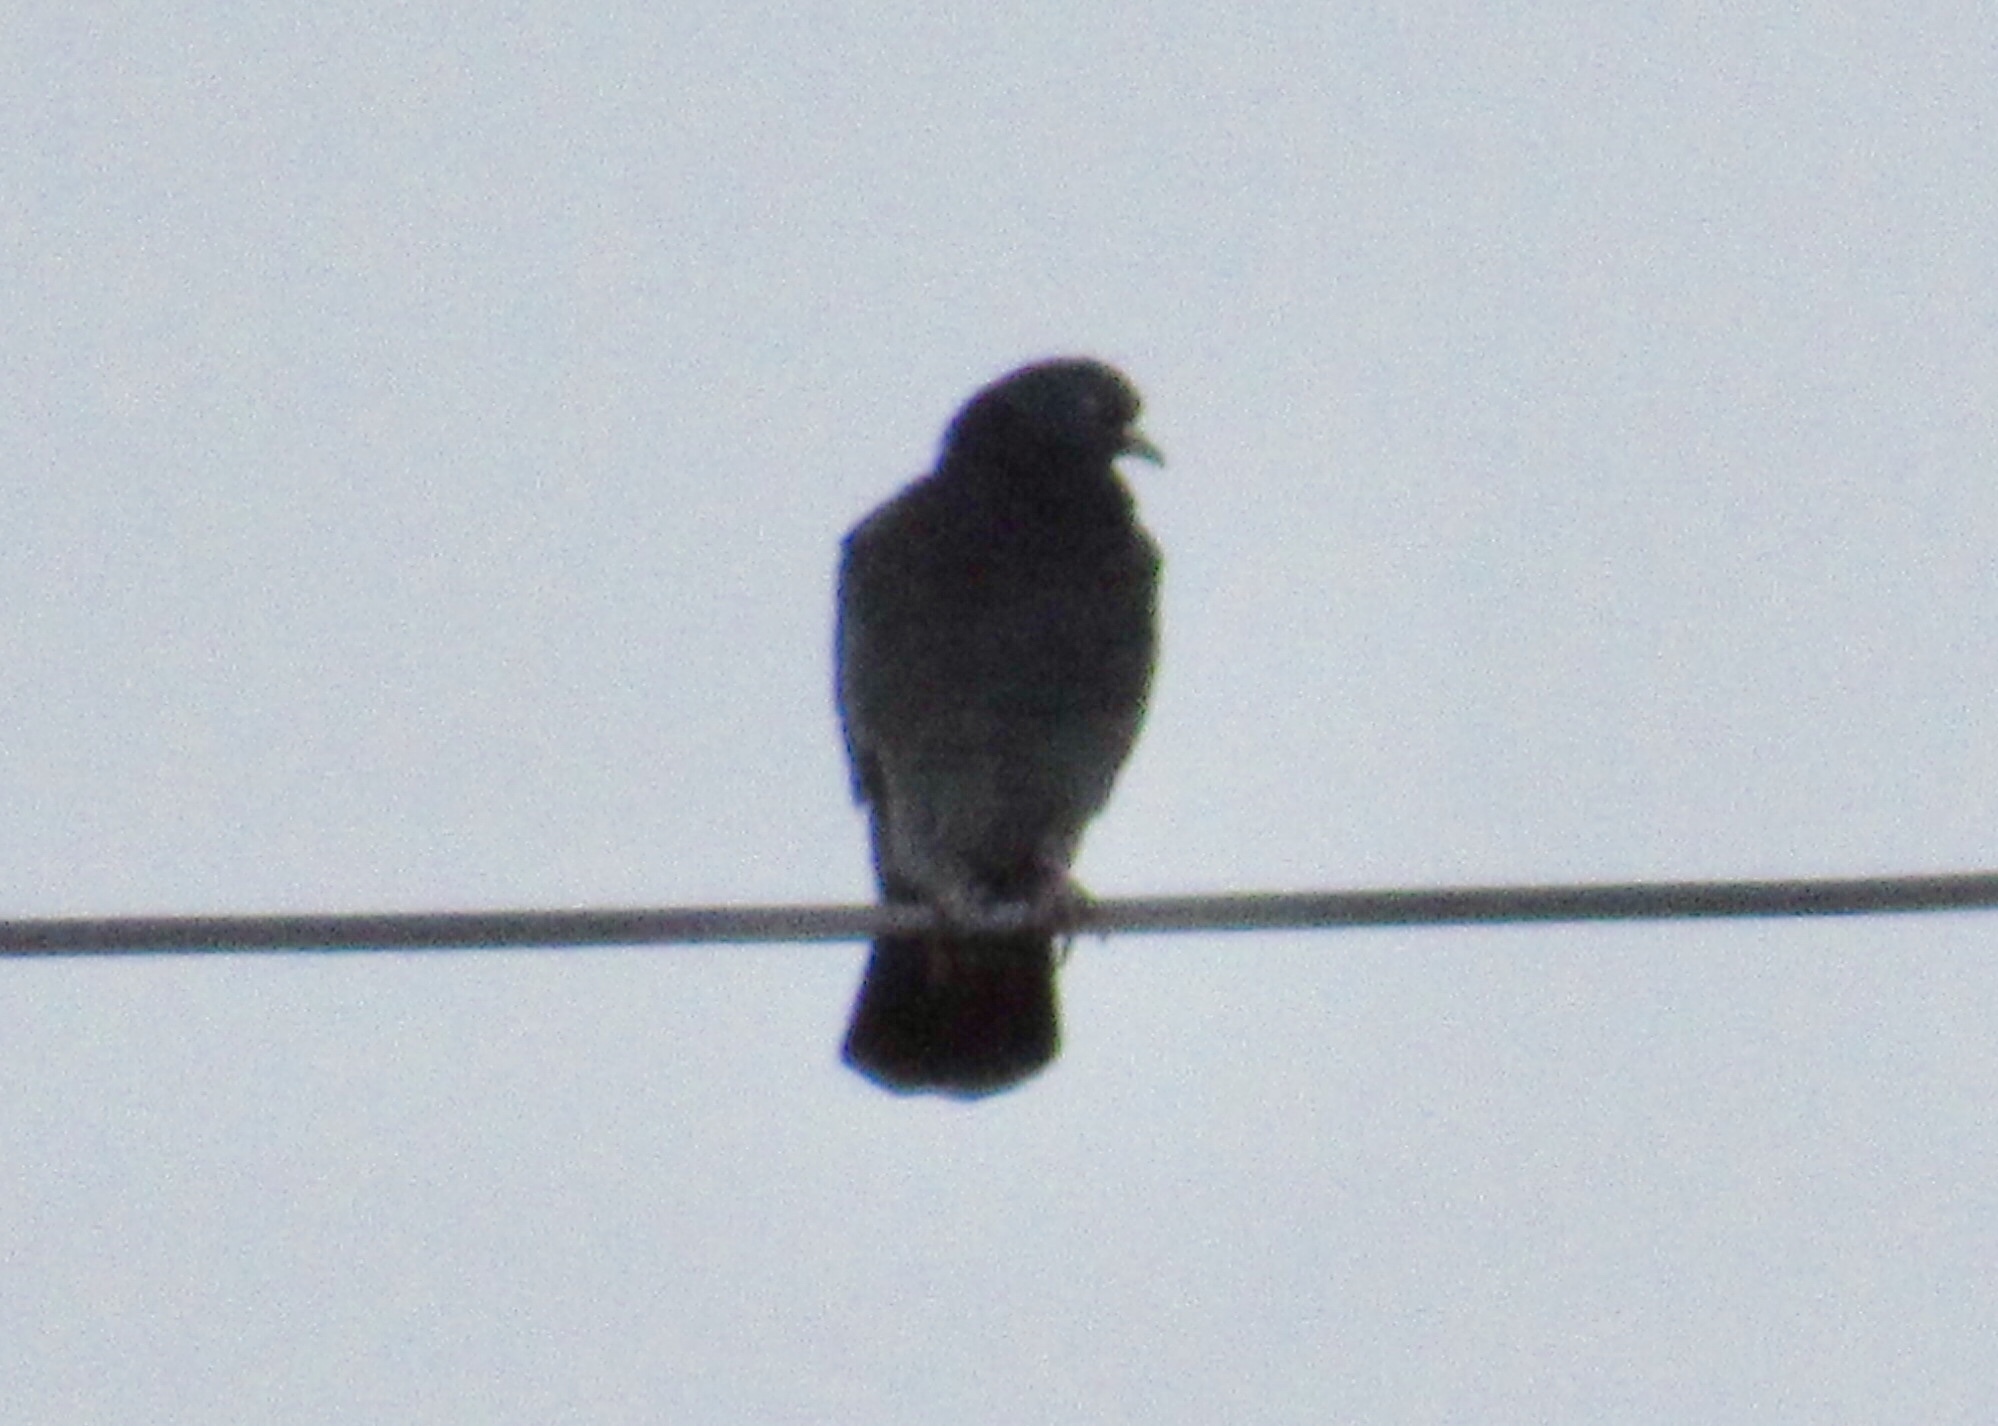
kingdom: Animalia
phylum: Chordata
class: Aves
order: Columbiformes
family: Columbidae
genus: Columba
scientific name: Columba livia
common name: Rock pigeon
